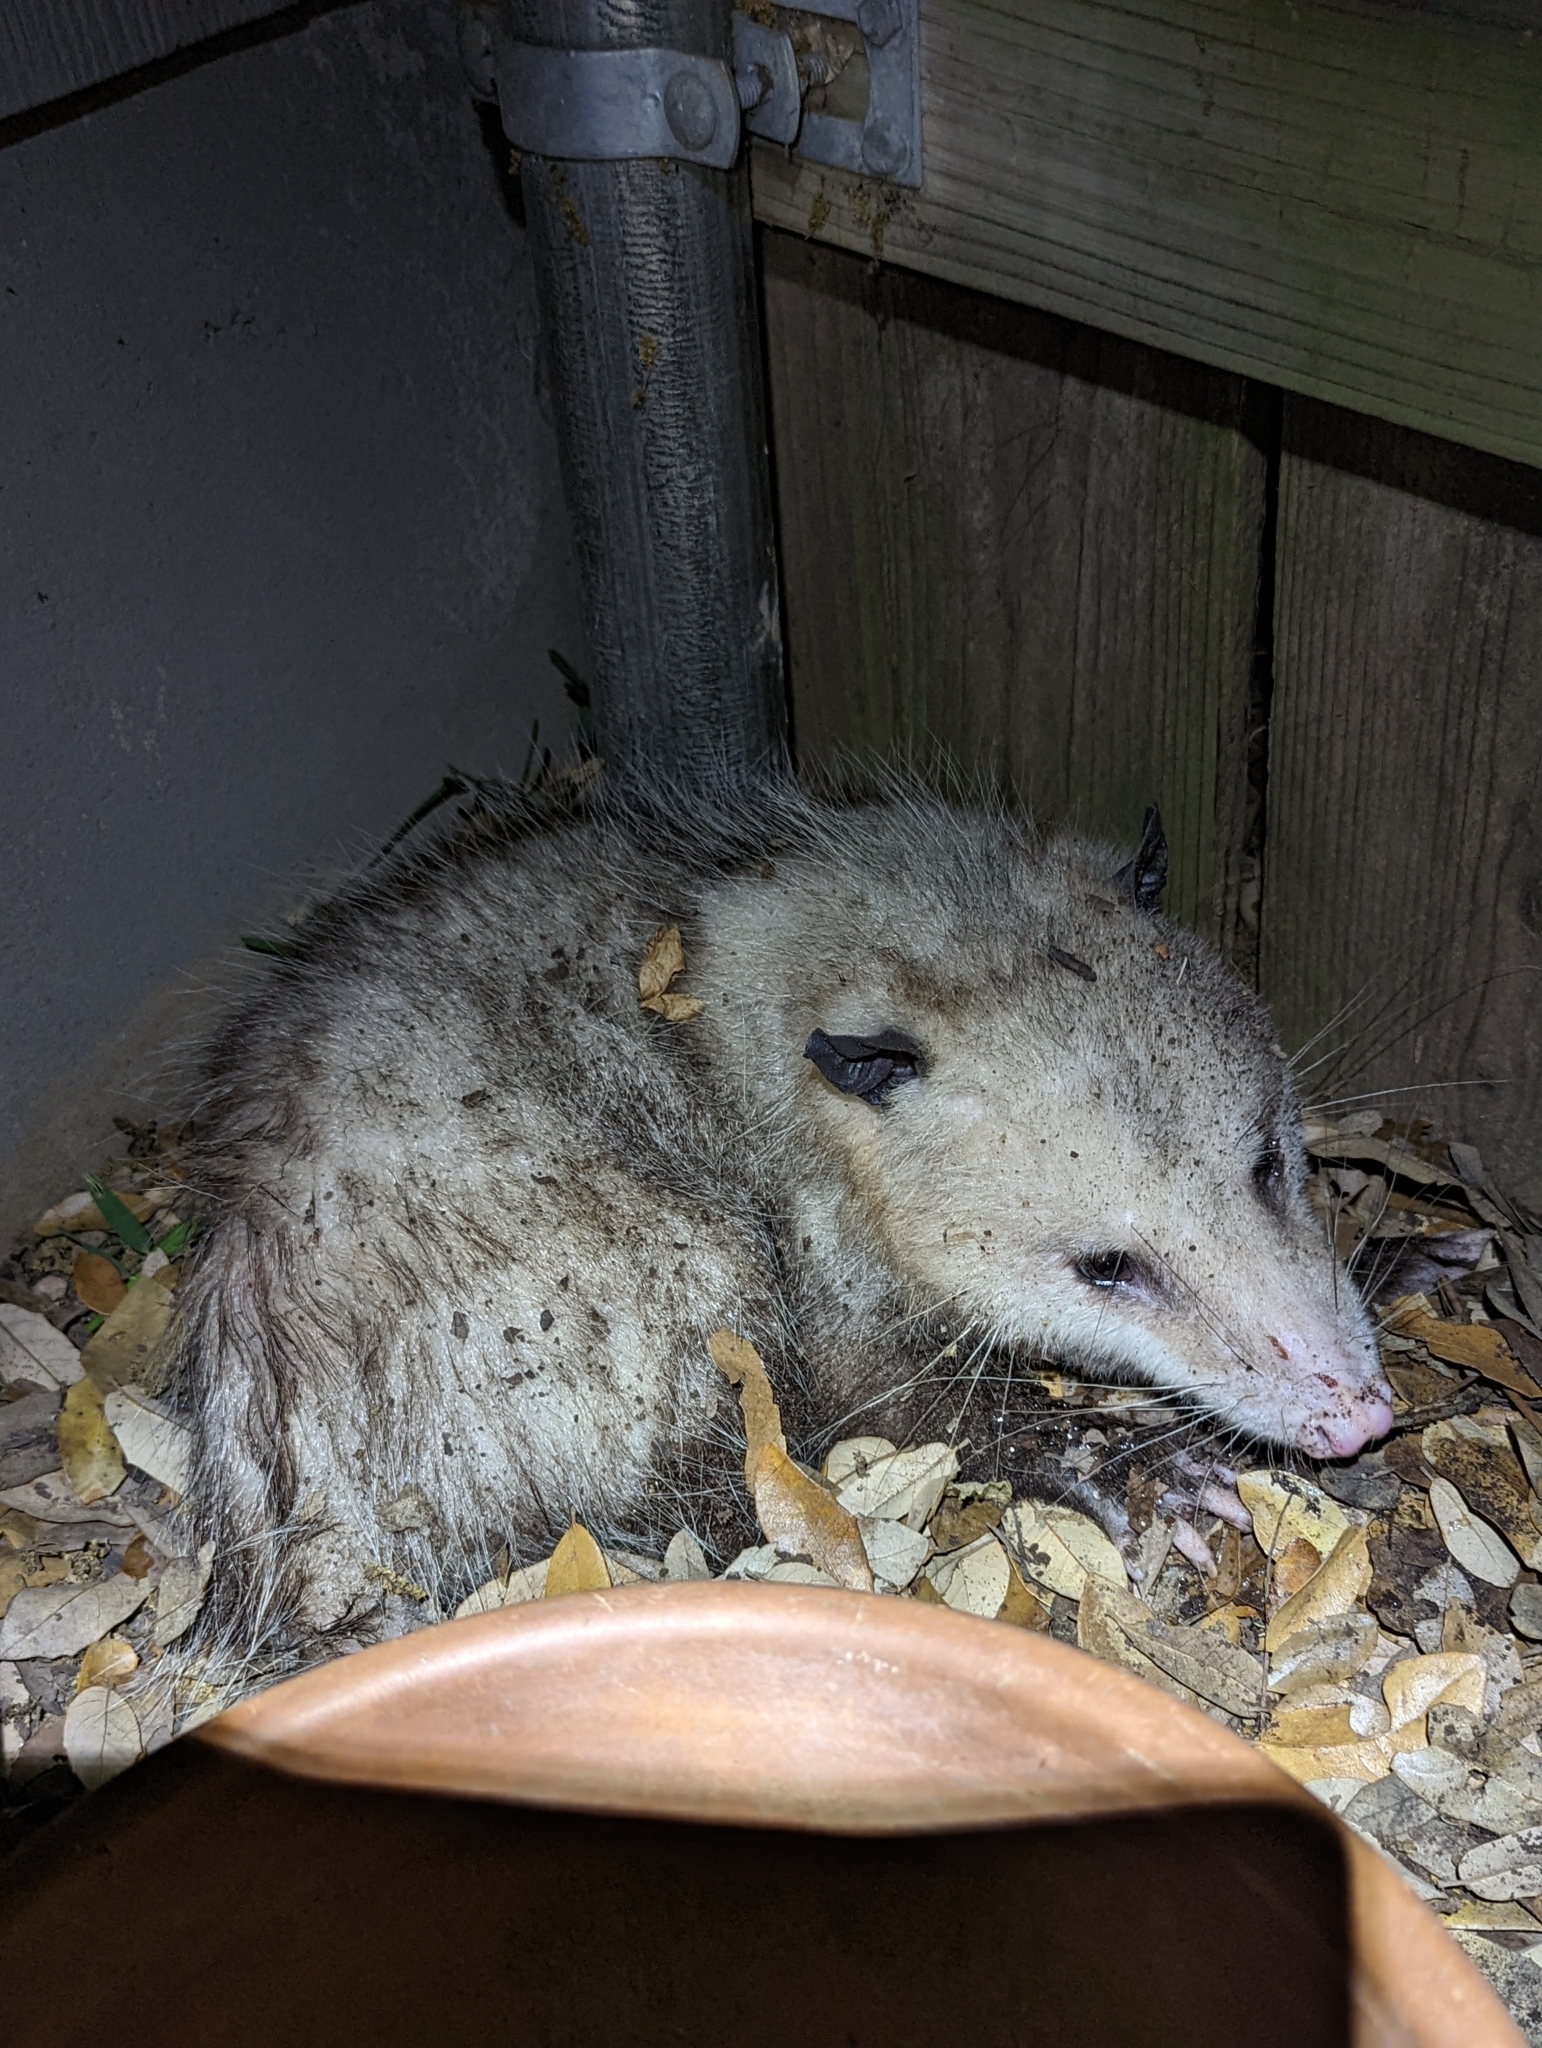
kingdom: Animalia
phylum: Chordata
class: Mammalia
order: Didelphimorphia
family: Didelphidae
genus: Didelphis
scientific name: Didelphis virginiana
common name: Virginia opossum
